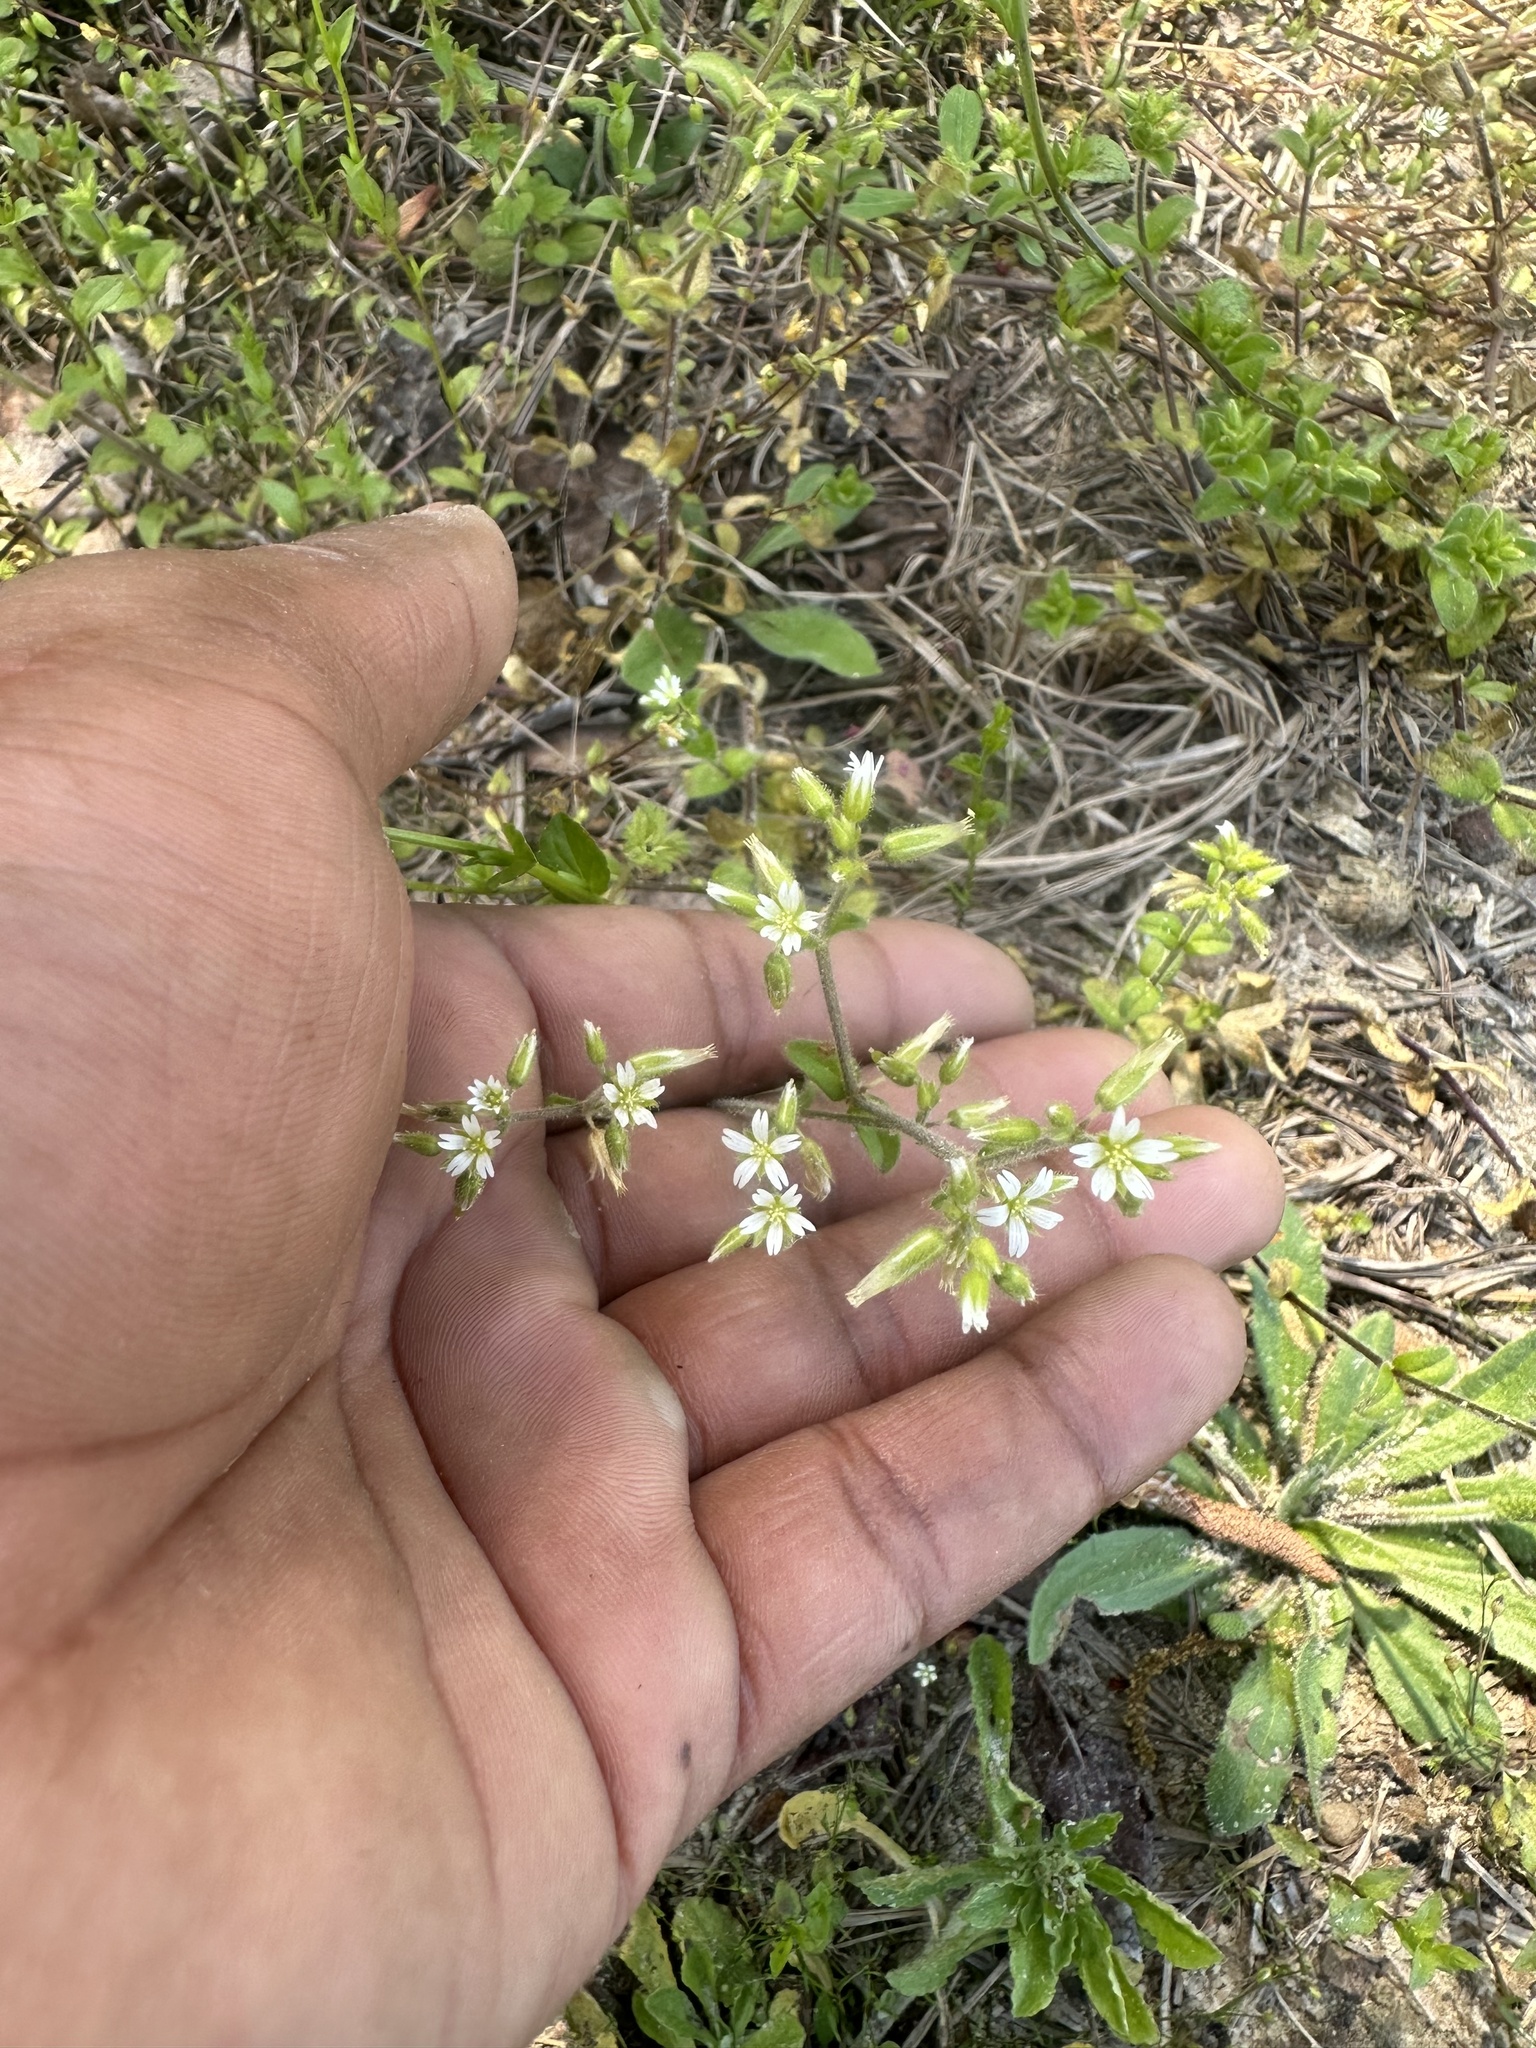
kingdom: Plantae
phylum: Tracheophyta
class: Magnoliopsida
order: Caryophyllales
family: Caryophyllaceae
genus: Cerastium
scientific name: Cerastium glomeratum
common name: Sticky chickweed
